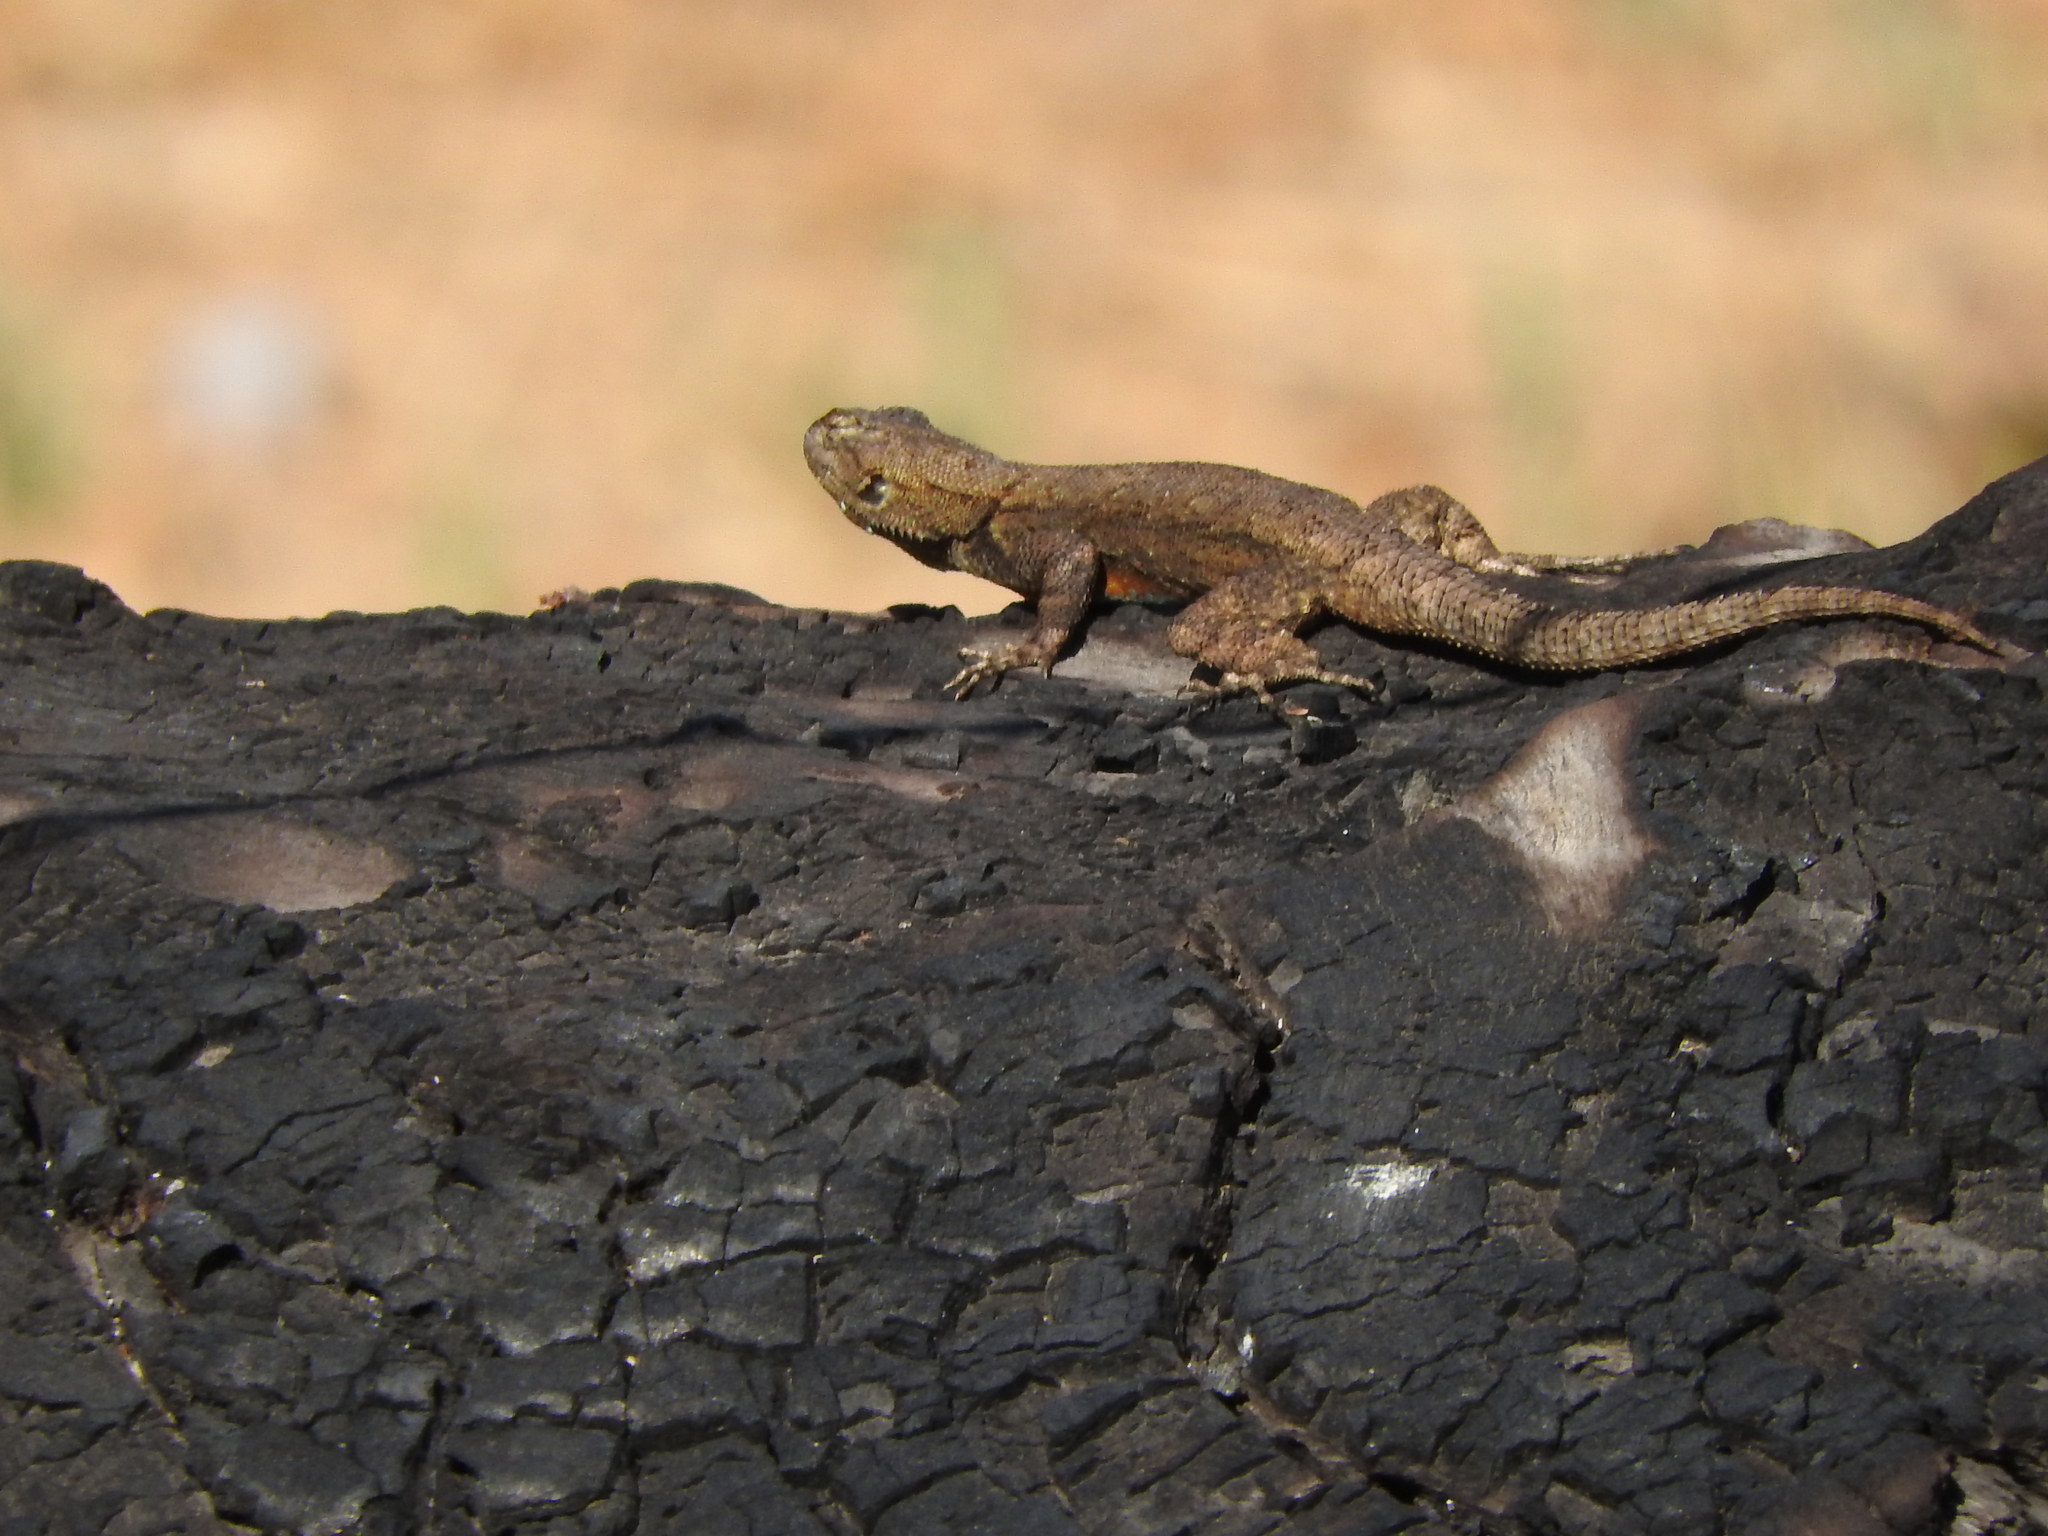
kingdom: Animalia
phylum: Chordata
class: Squamata
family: Phrynosomatidae
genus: Sceloporus
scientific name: Sceloporus grammicus
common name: Mesquite lizard
